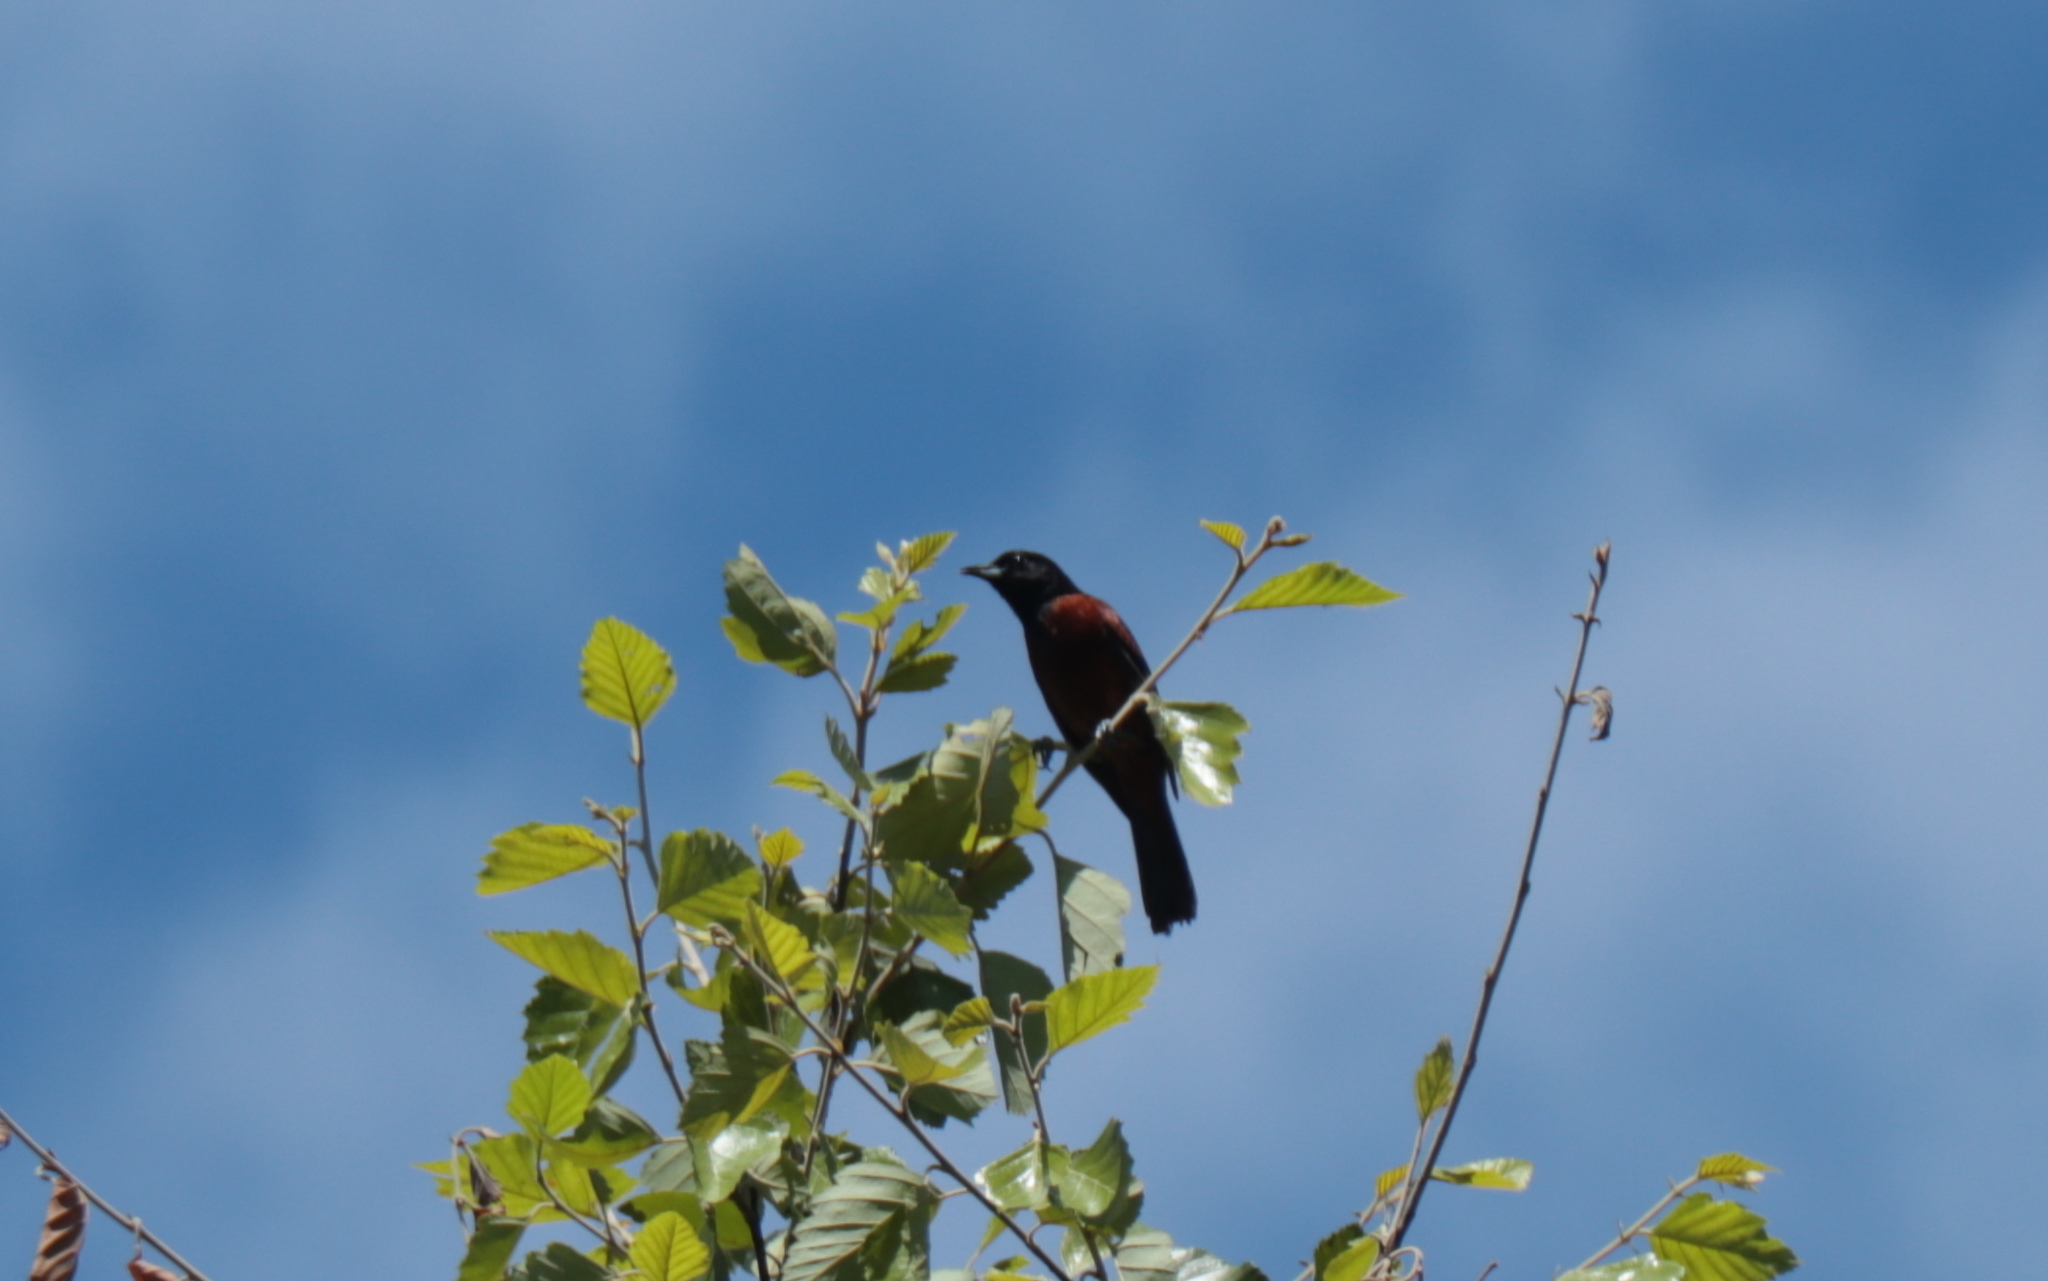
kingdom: Animalia
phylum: Chordata
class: Aves
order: Passeriformes
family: Icteridae
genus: Icterus
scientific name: Icterus spurius
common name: Orchard oriole
